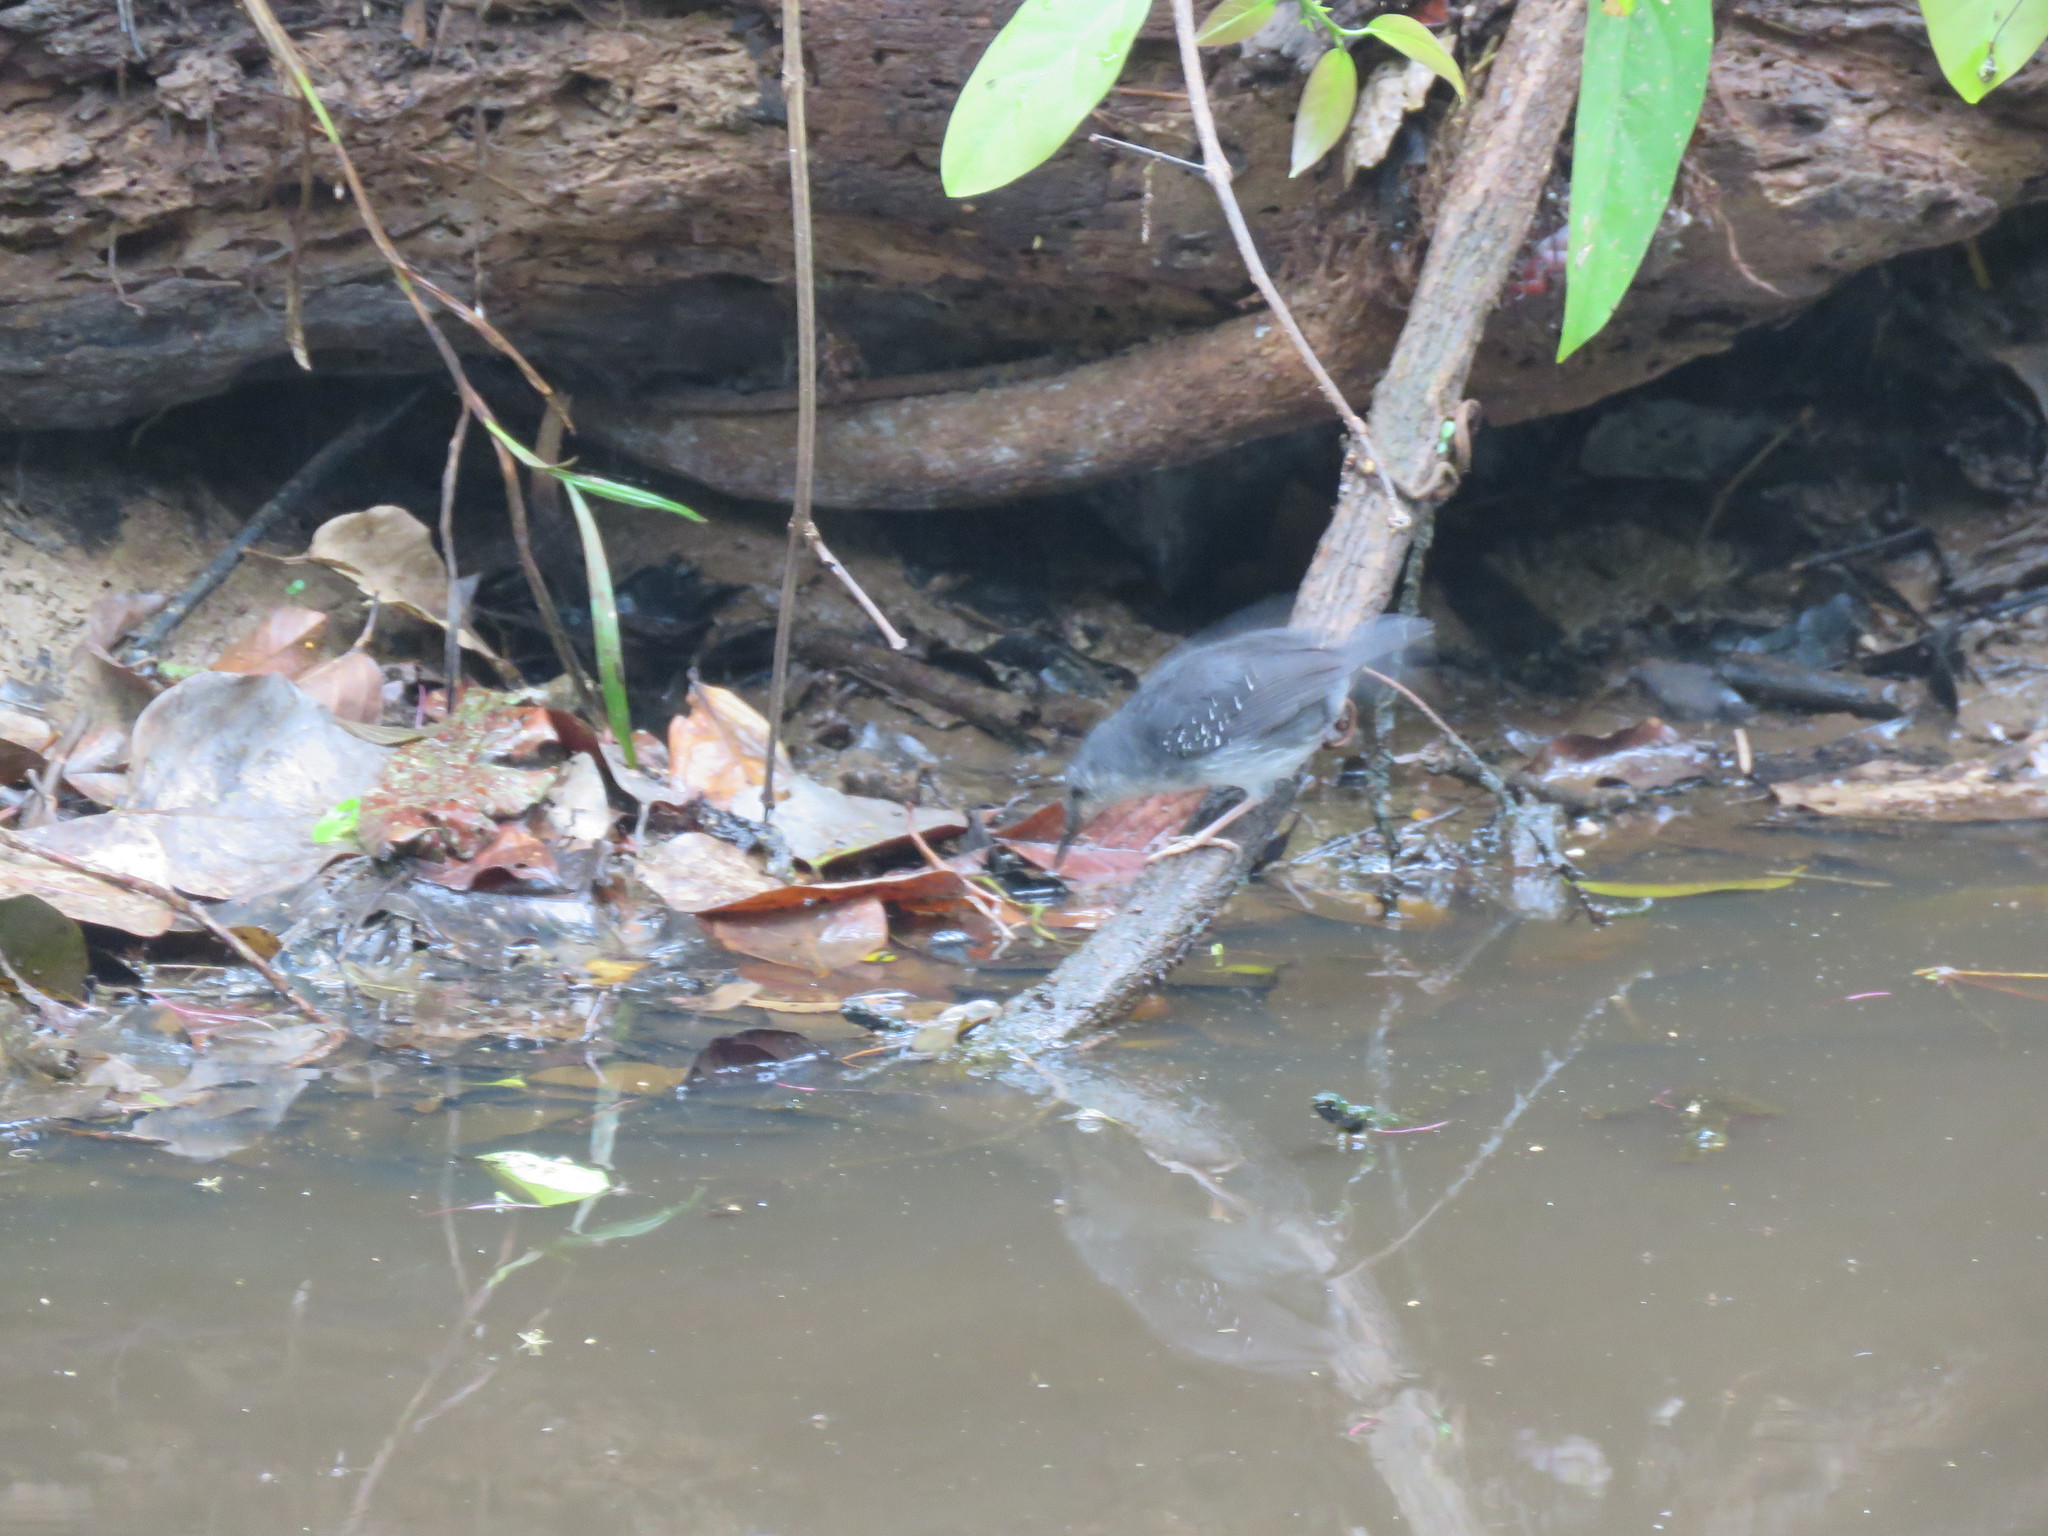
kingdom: Animalia
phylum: Chordata
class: Aves
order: Passeriformes
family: Thamnophilidae
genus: Sclateria
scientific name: Sclateria naevia
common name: Silvered antbird
